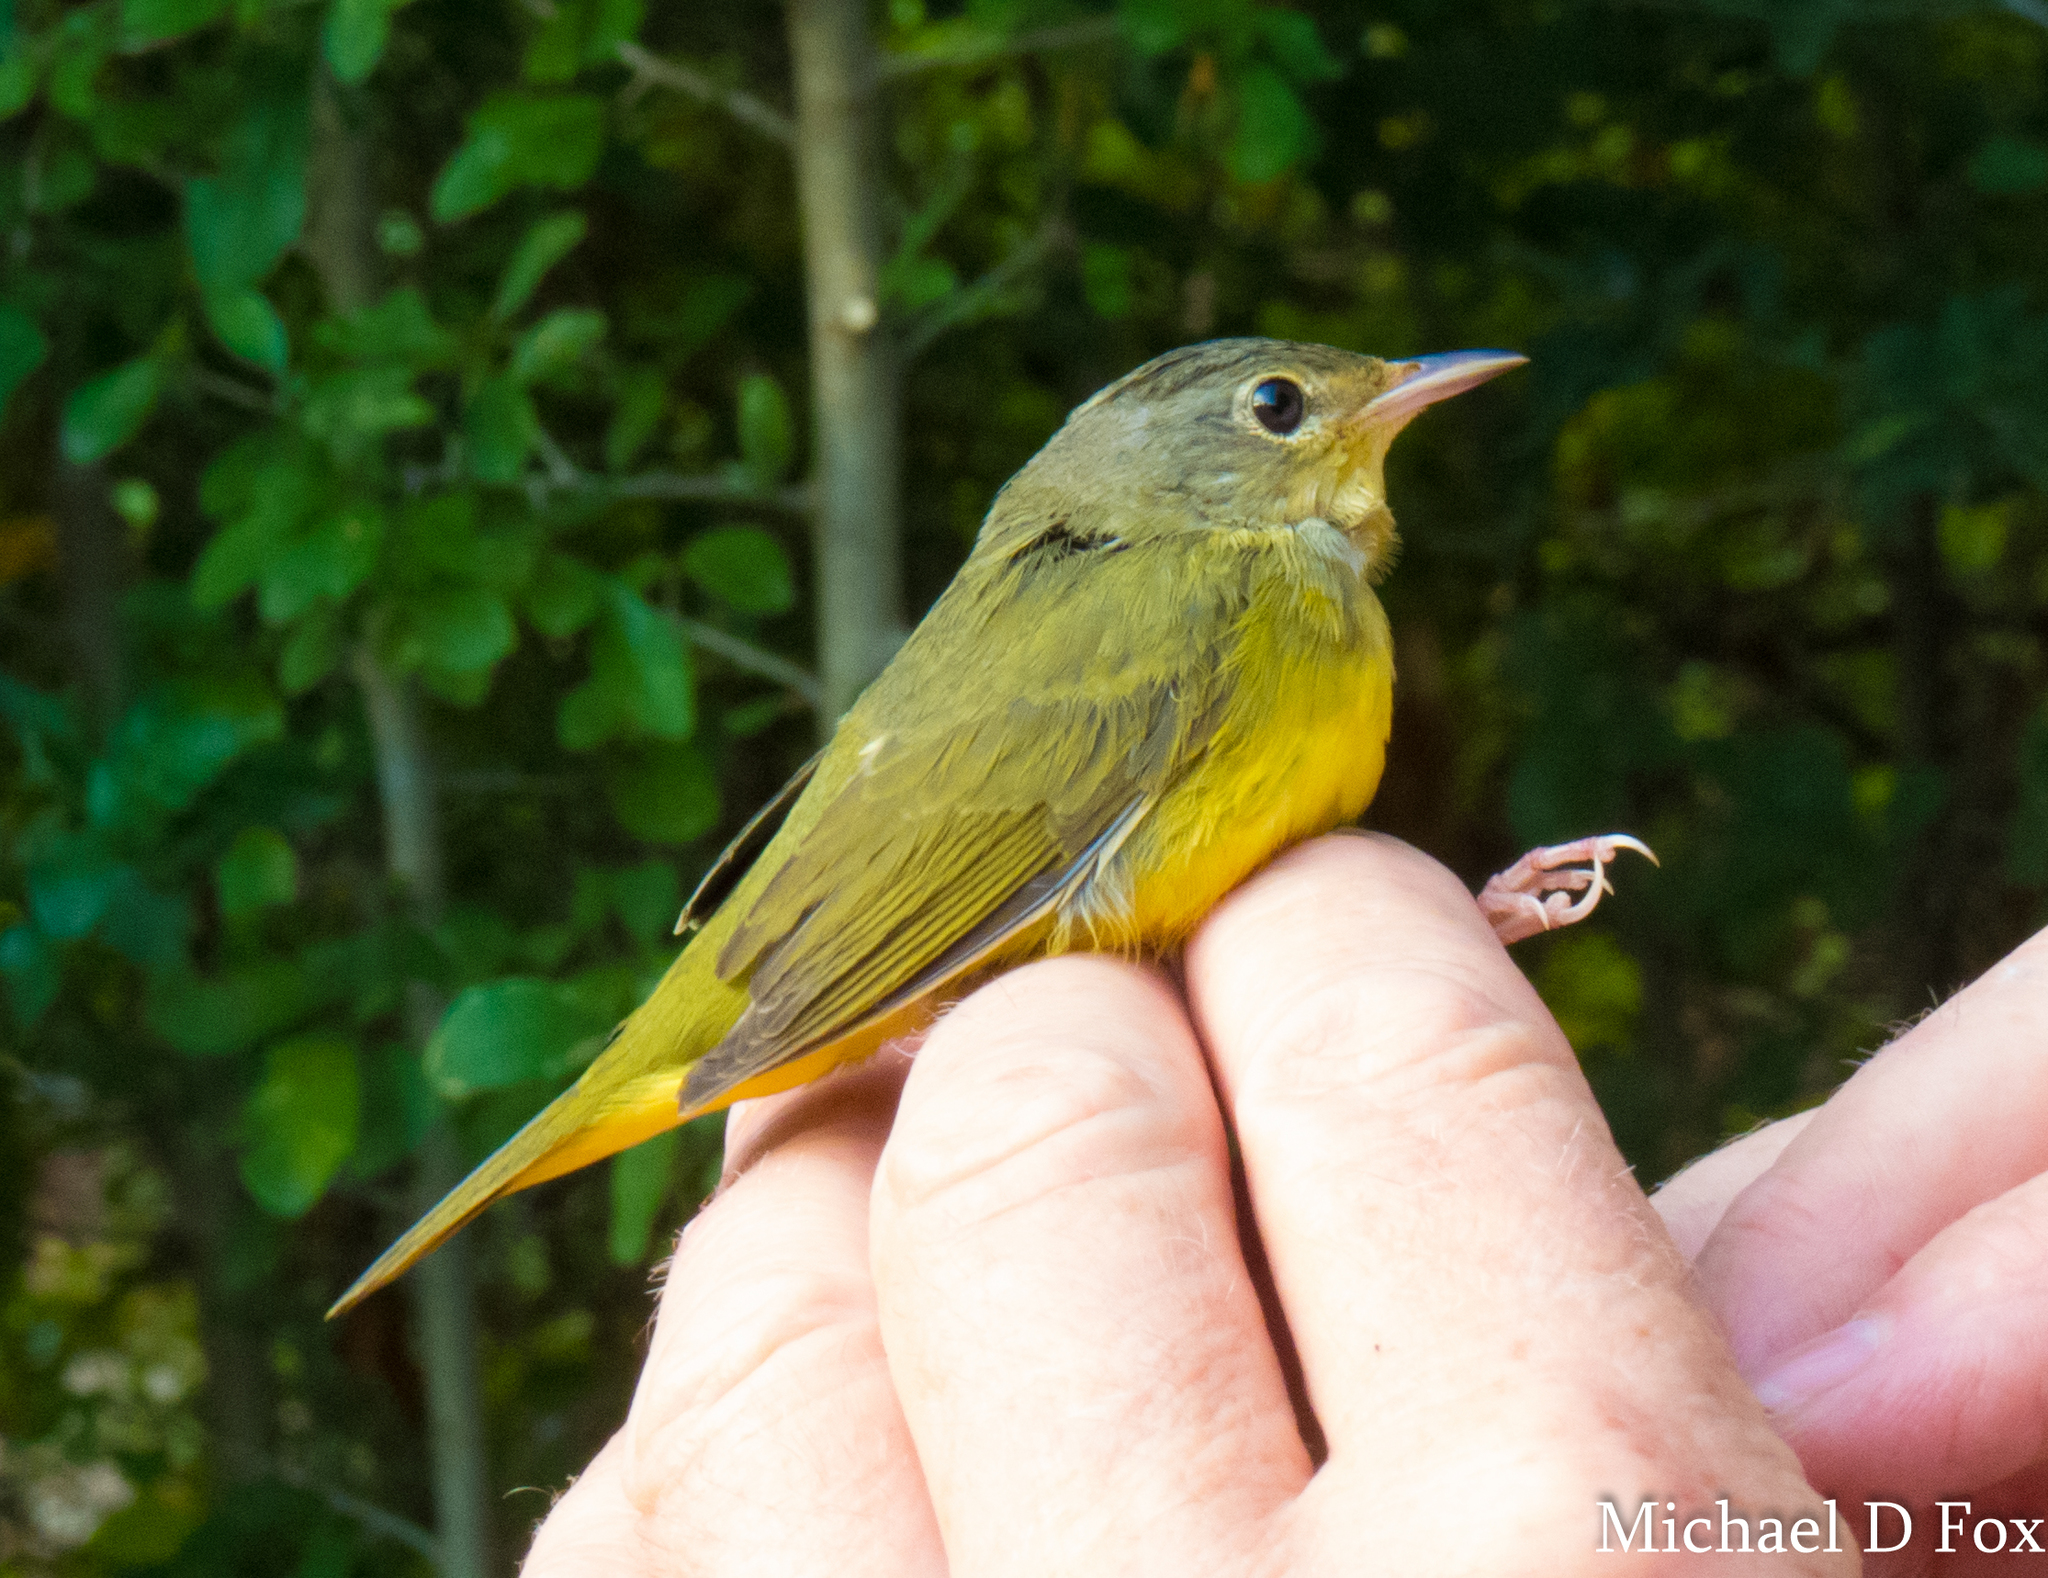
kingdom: Animalia
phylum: Chordata
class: Aves
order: Passeriformes
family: Parulidae
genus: Geothlypis
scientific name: Geothlypis philadelphia
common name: Mourning warbler
